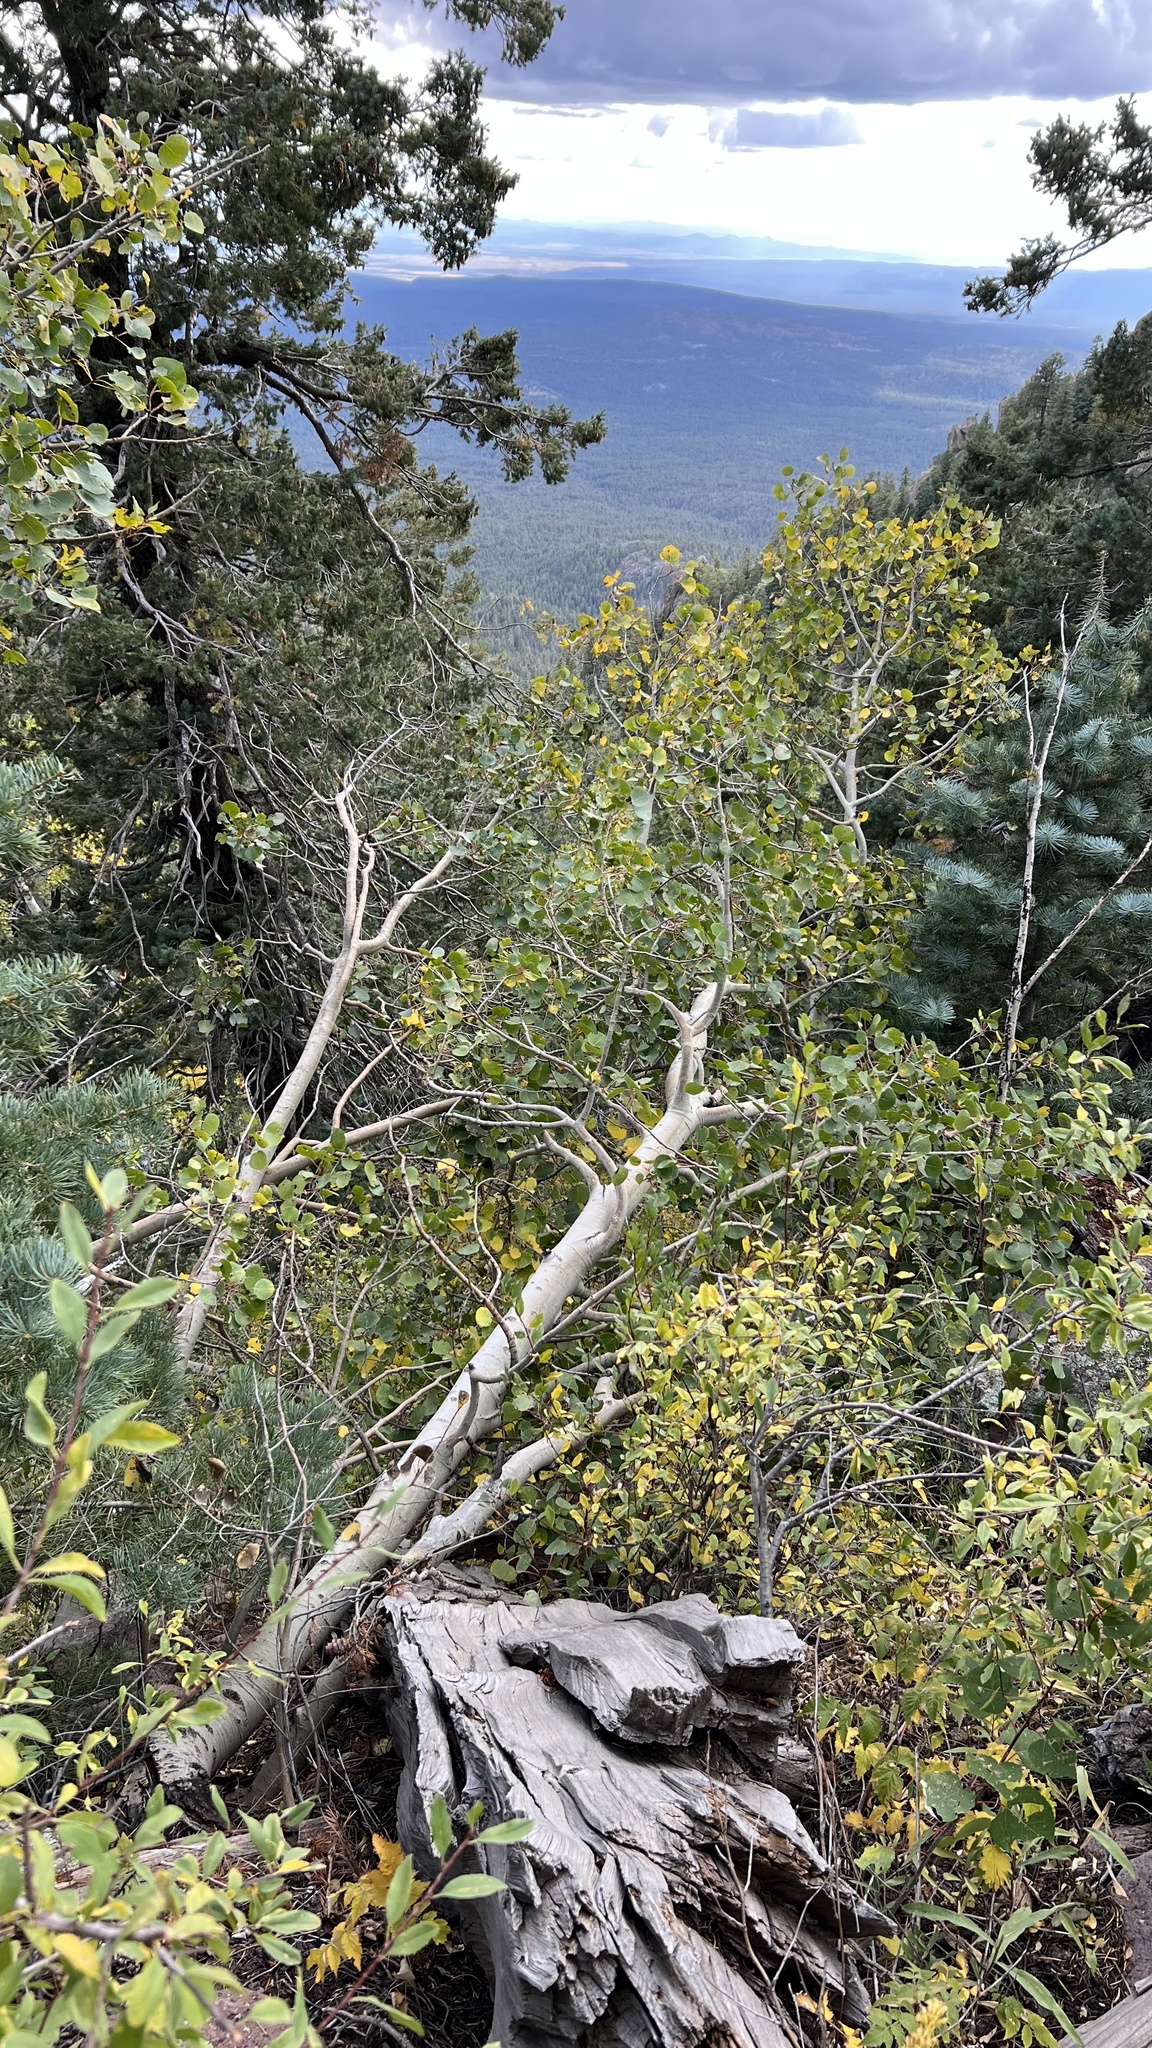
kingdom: Plantae
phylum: Tracheophyta
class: Magnoliopsida
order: Malpighiales
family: Salicaceae
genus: Populus
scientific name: Populus tremuloides
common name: Quaking aspen
